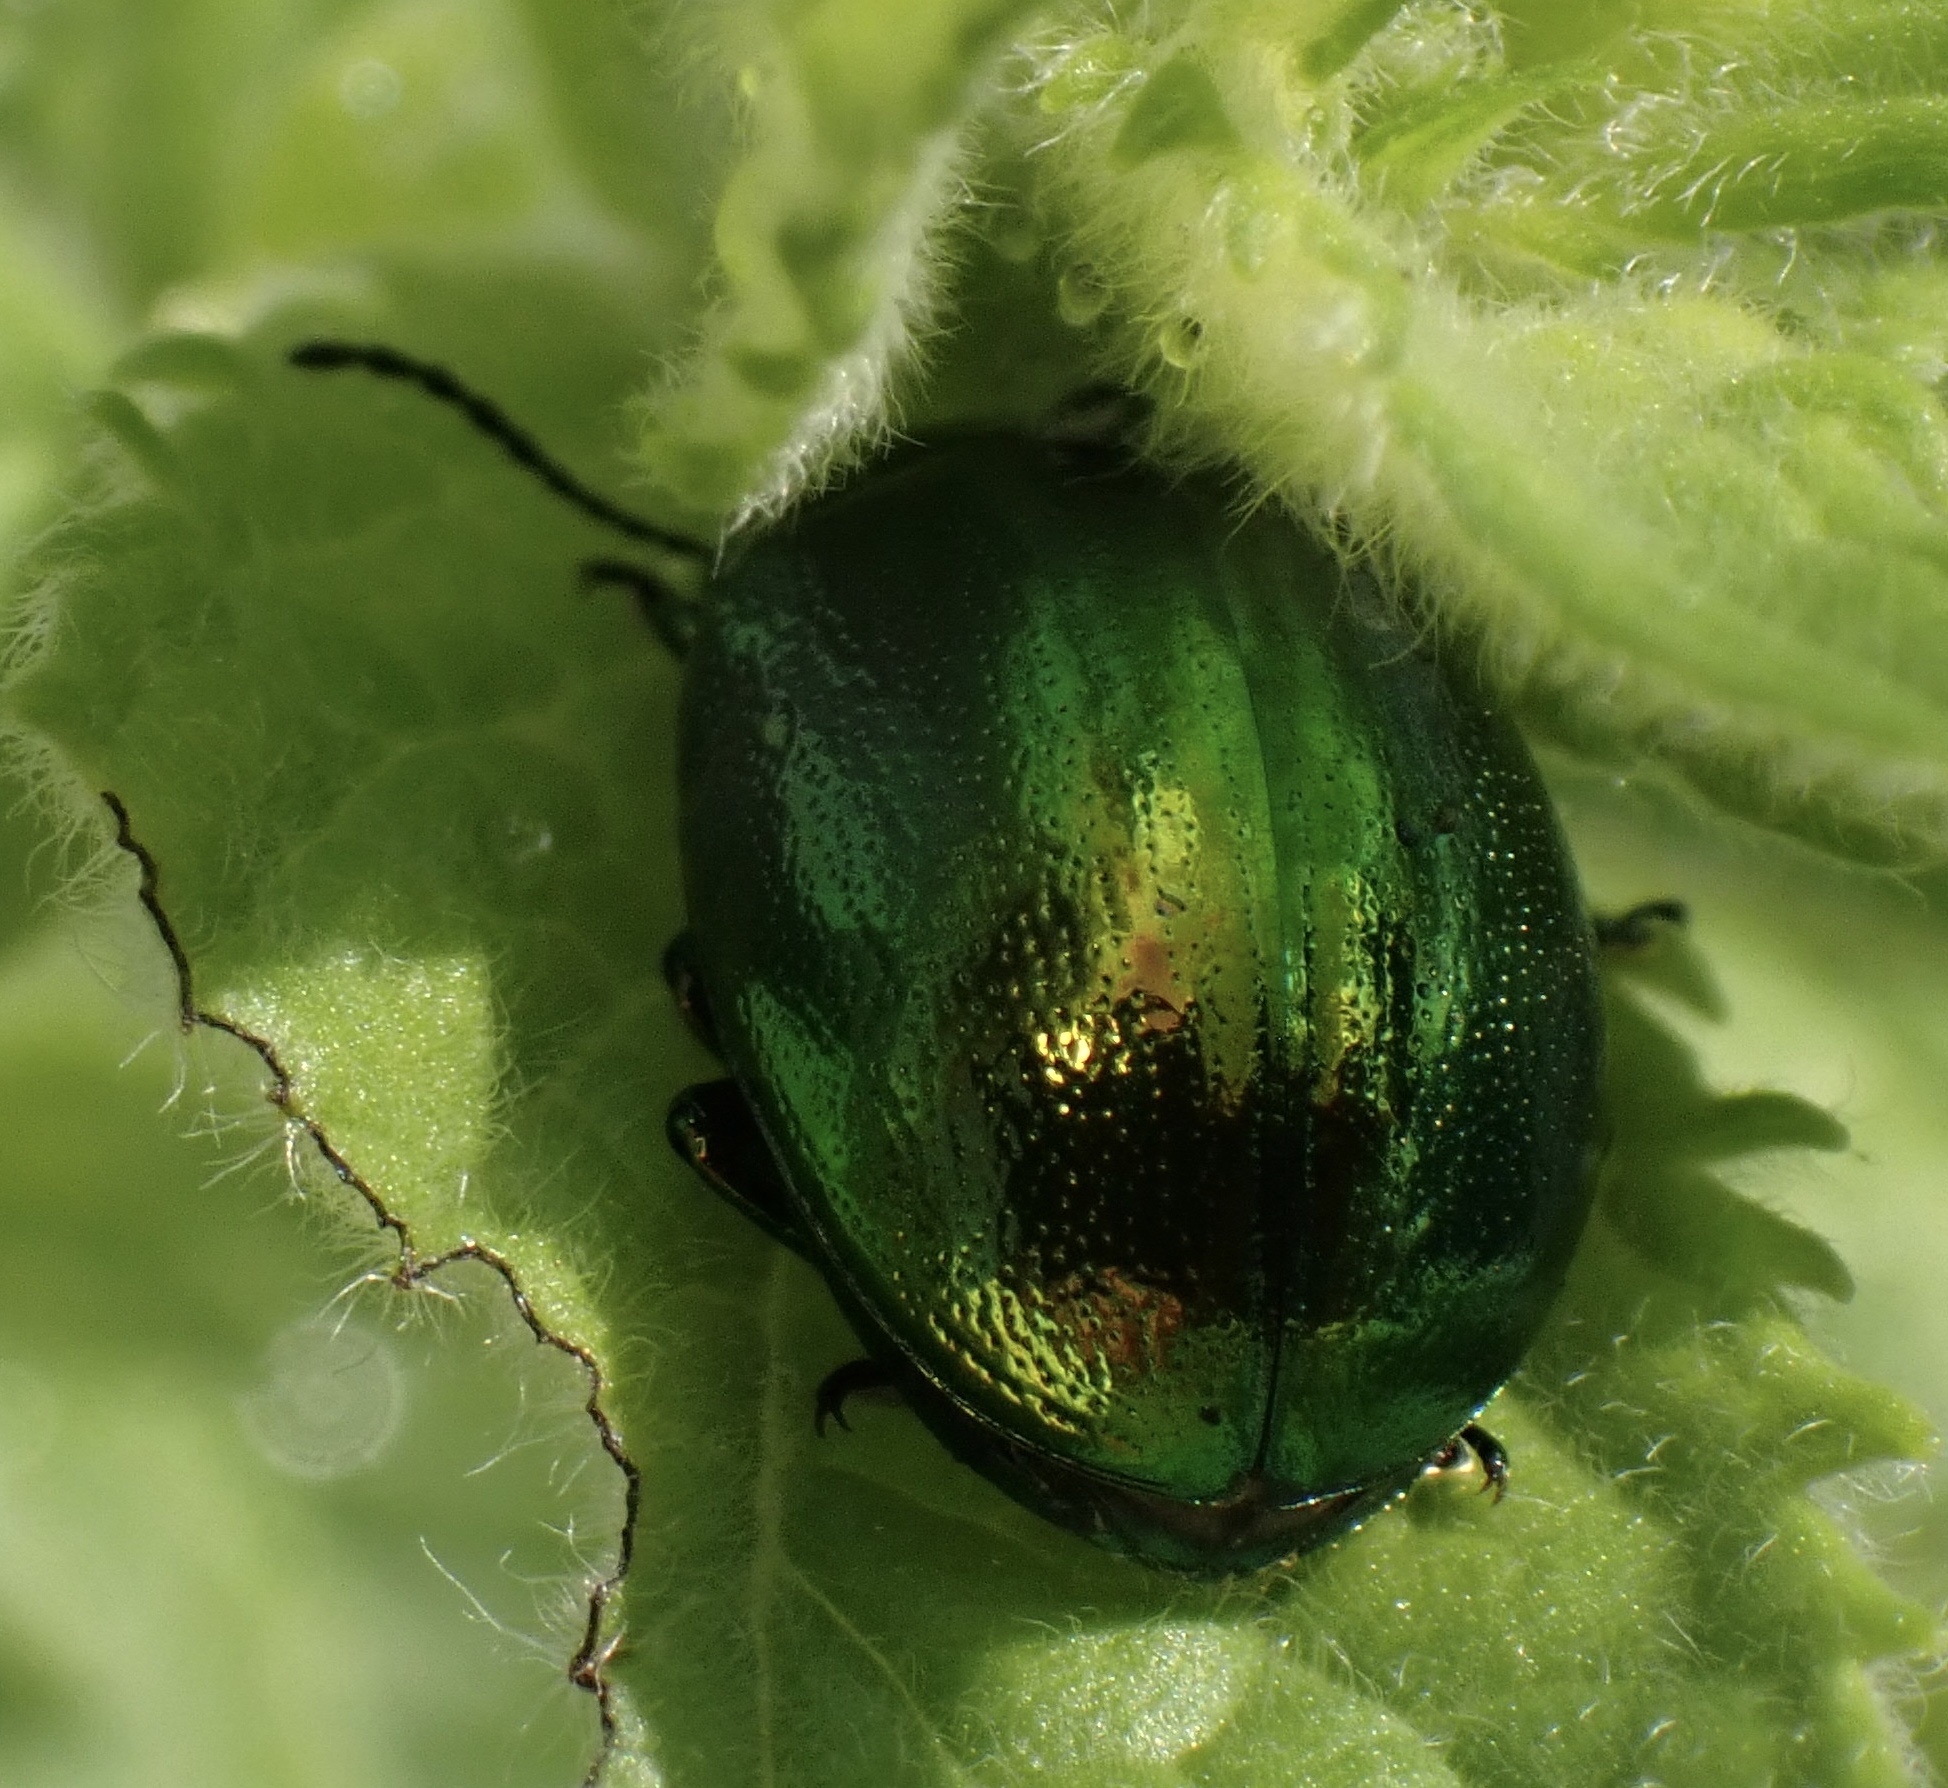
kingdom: Animalia
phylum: Arthropoda
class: Insecta
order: Coleoptera
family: Chrysomelidae
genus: Chrysolina
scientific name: Chrysolina herbacea
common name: Mint leaf beatle
